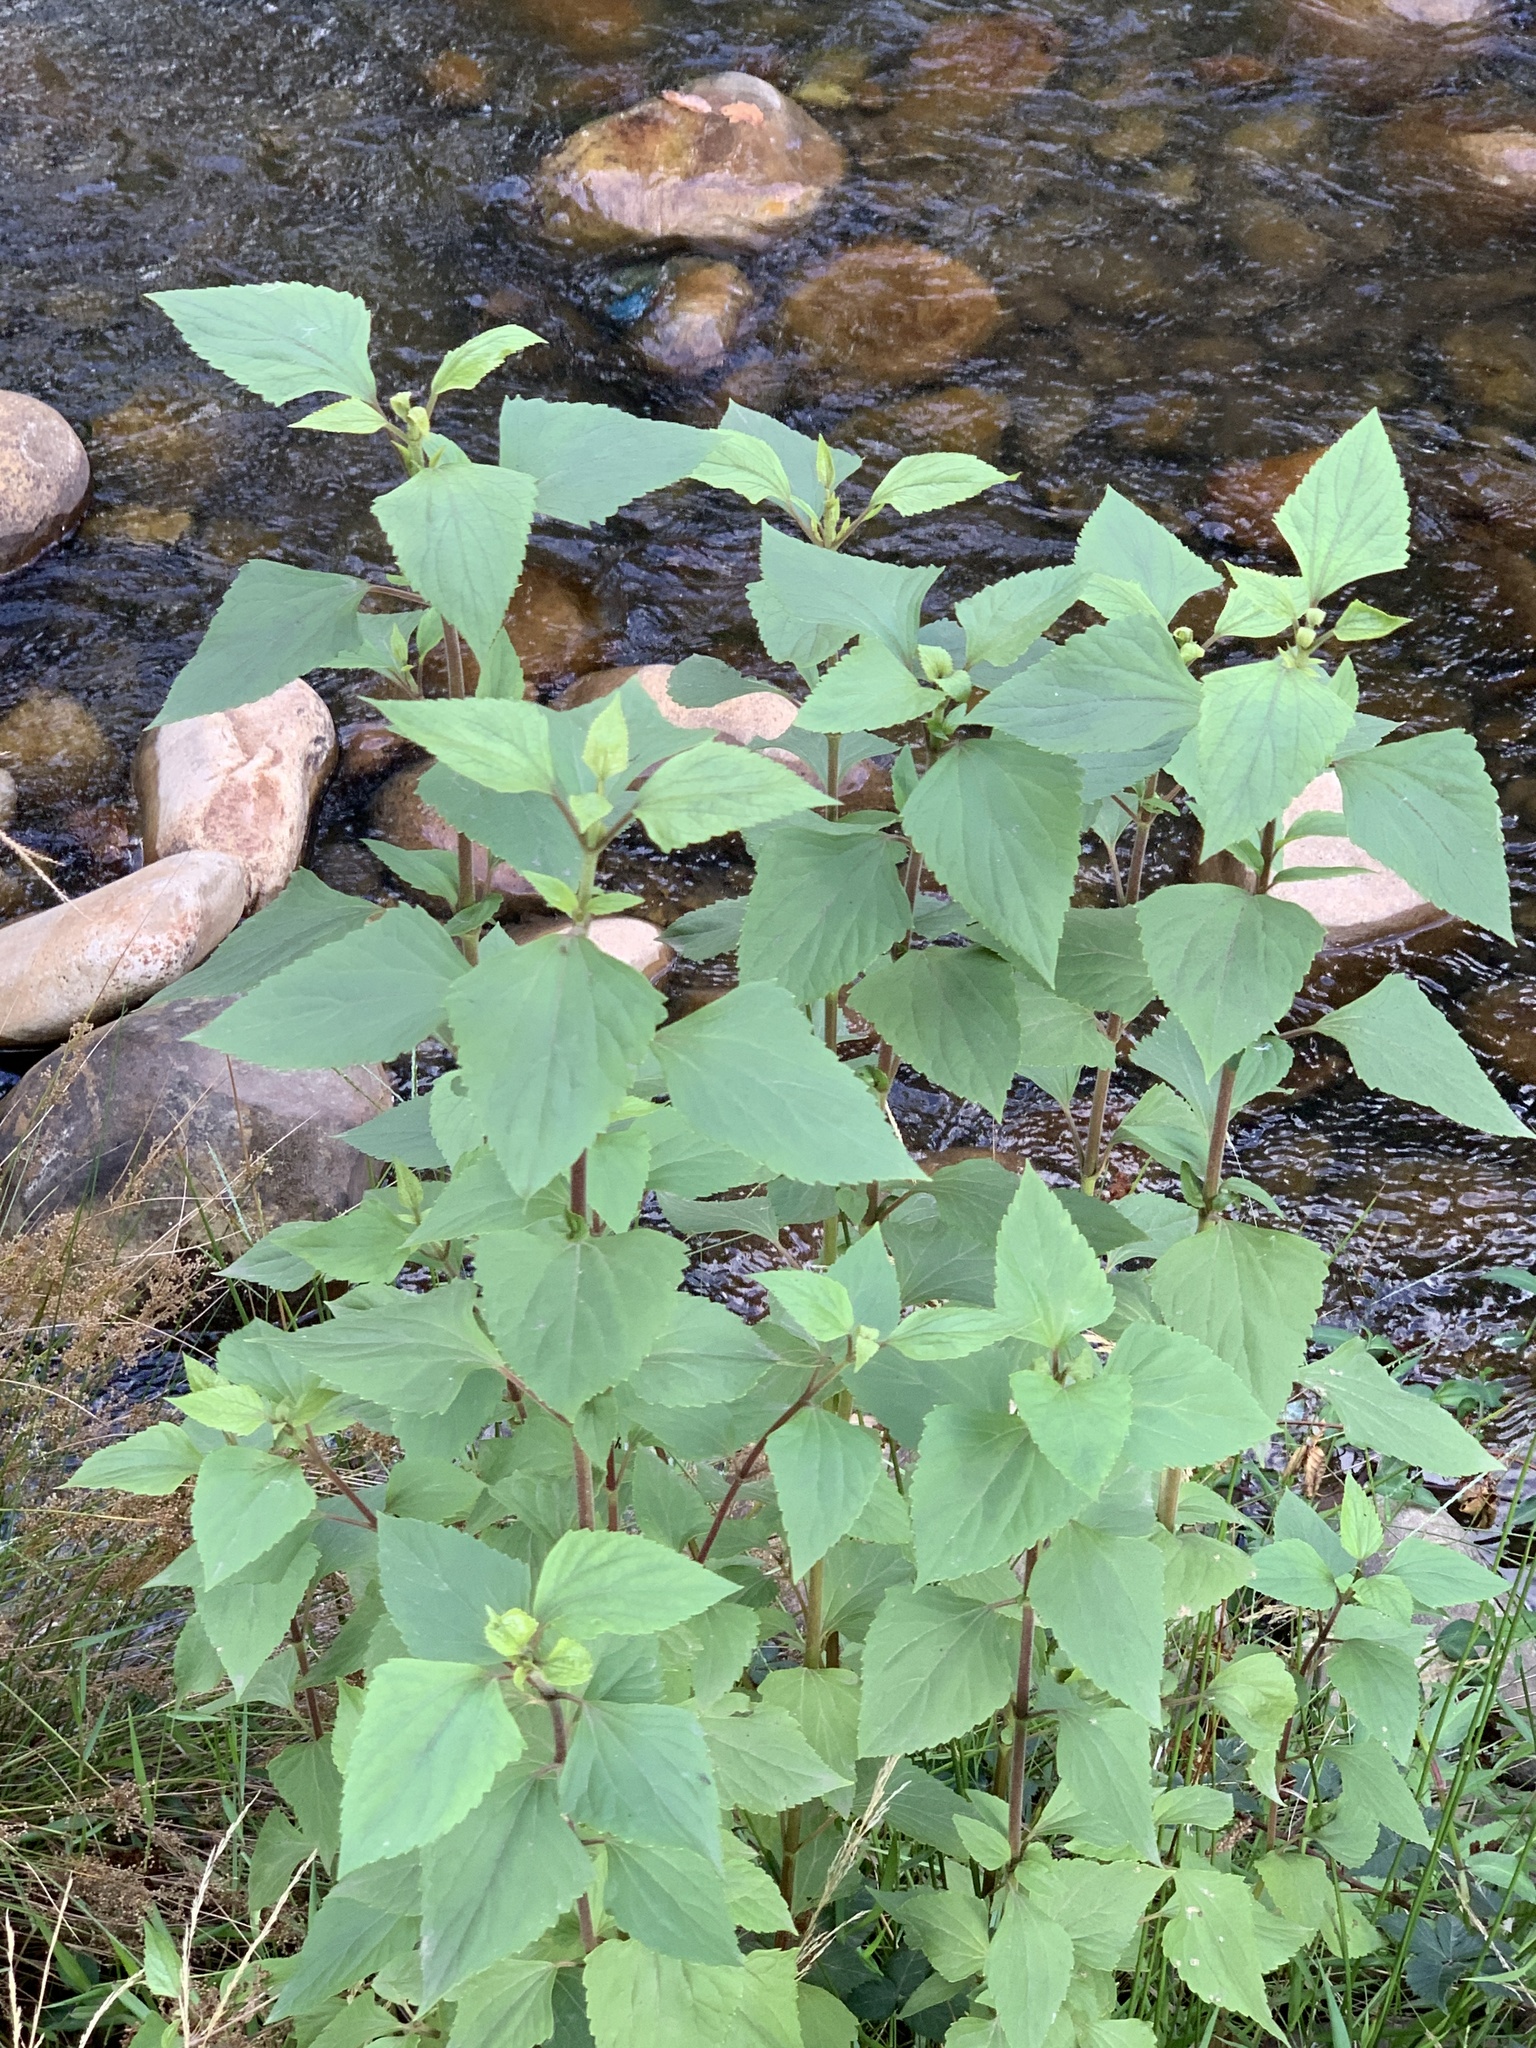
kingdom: Plantae
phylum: Tracheophyta
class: Magnoliopsida
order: Asterales
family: Asteraceae
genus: Ageratina
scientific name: Ageratina adenophora
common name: Sticky snakeroot
